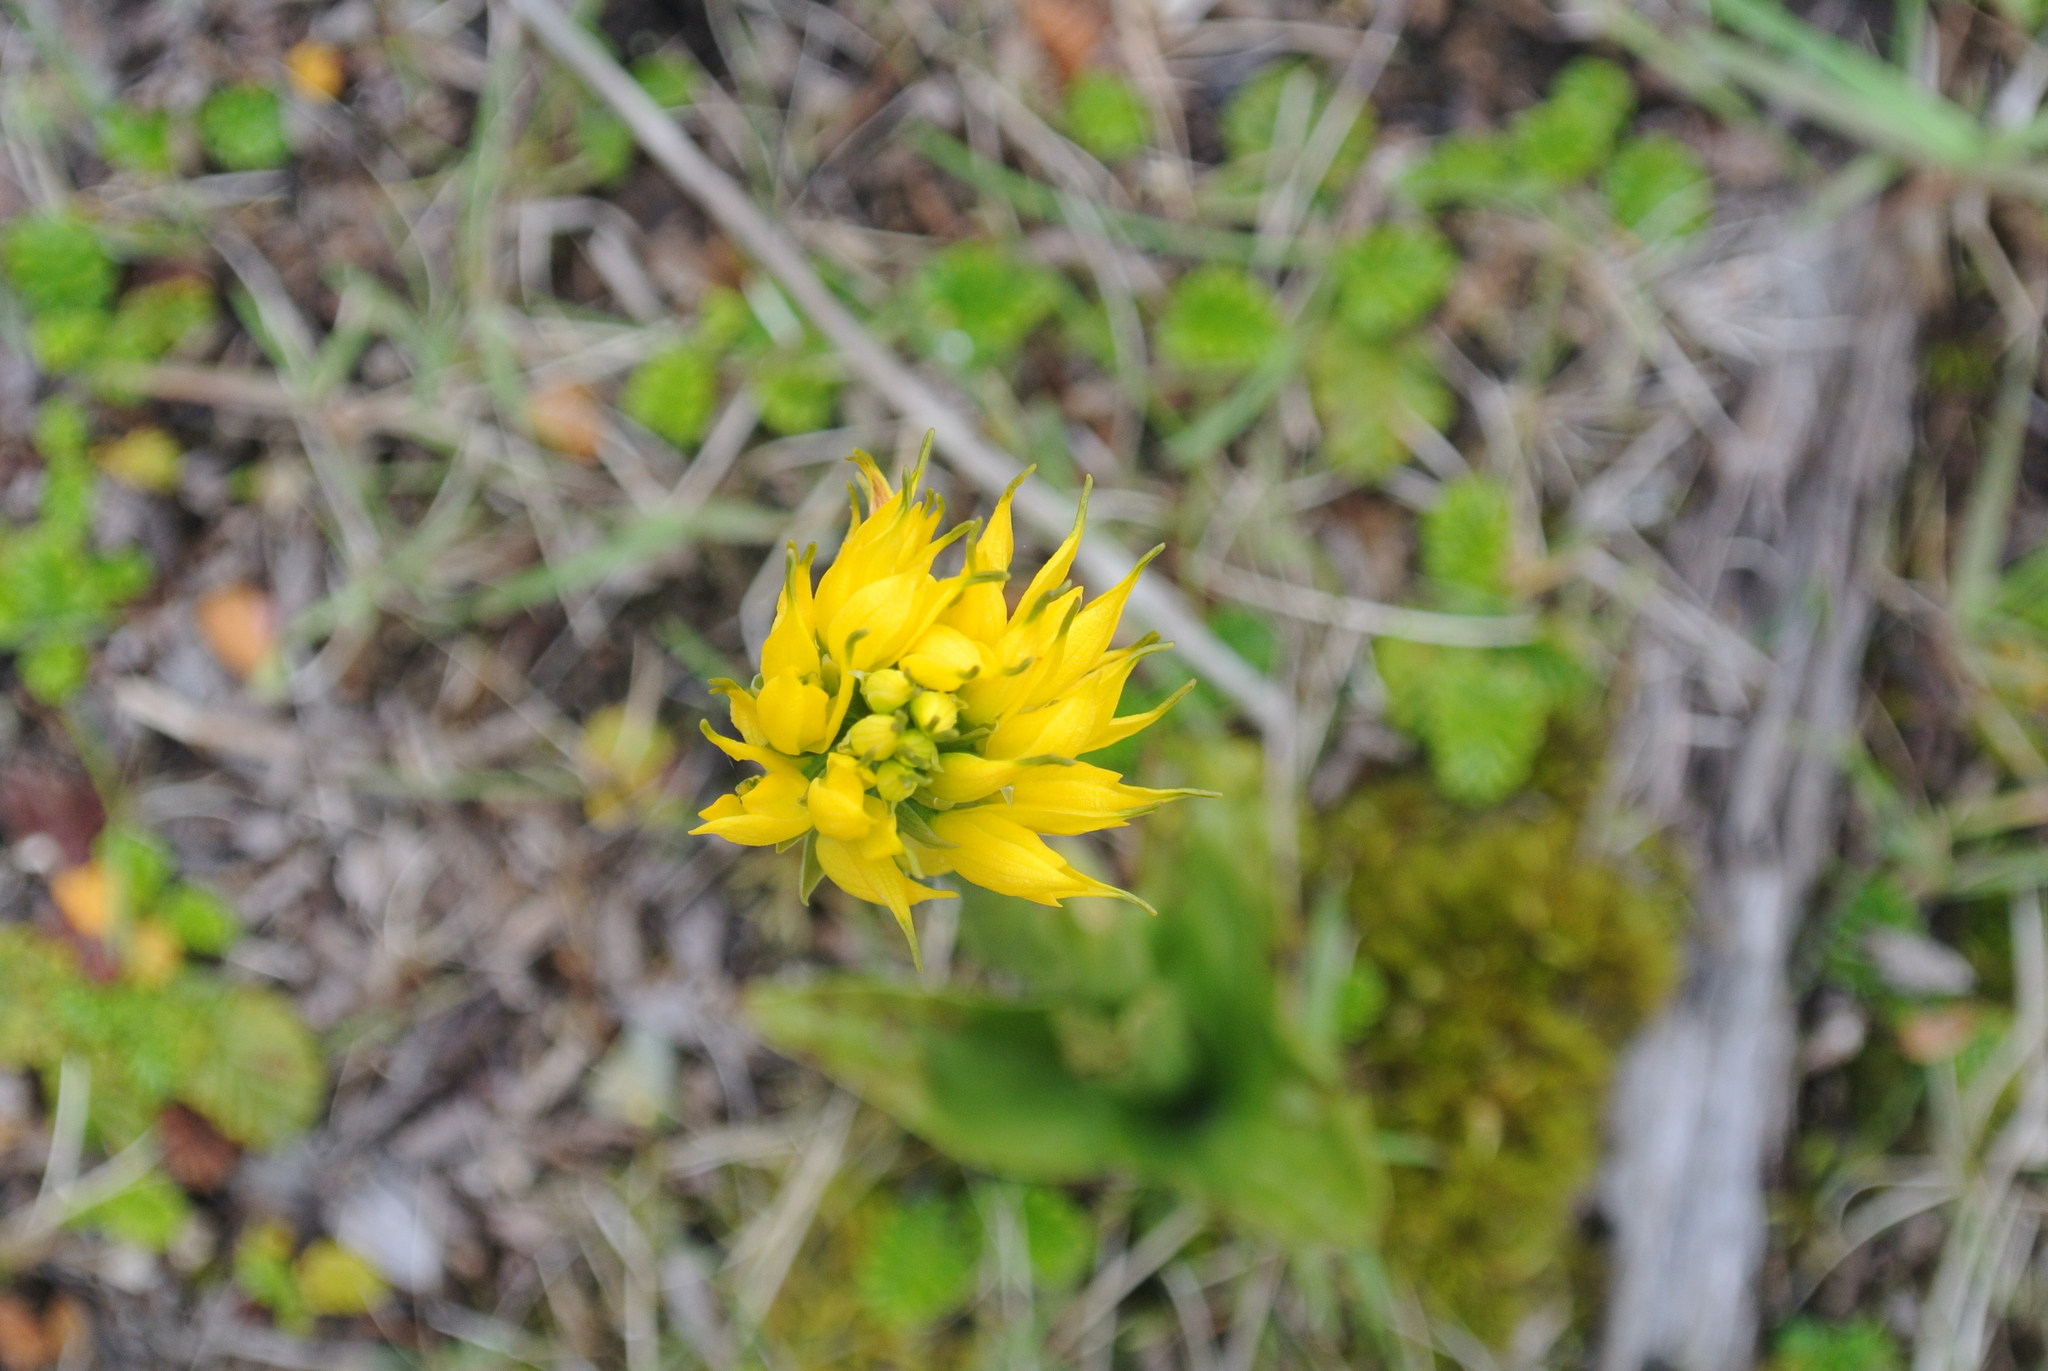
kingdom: Plantae
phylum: Tracheophyta
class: Liliopsida
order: Asparagales
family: Orchidaceae
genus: Gavilea
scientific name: Gavilea lutea
